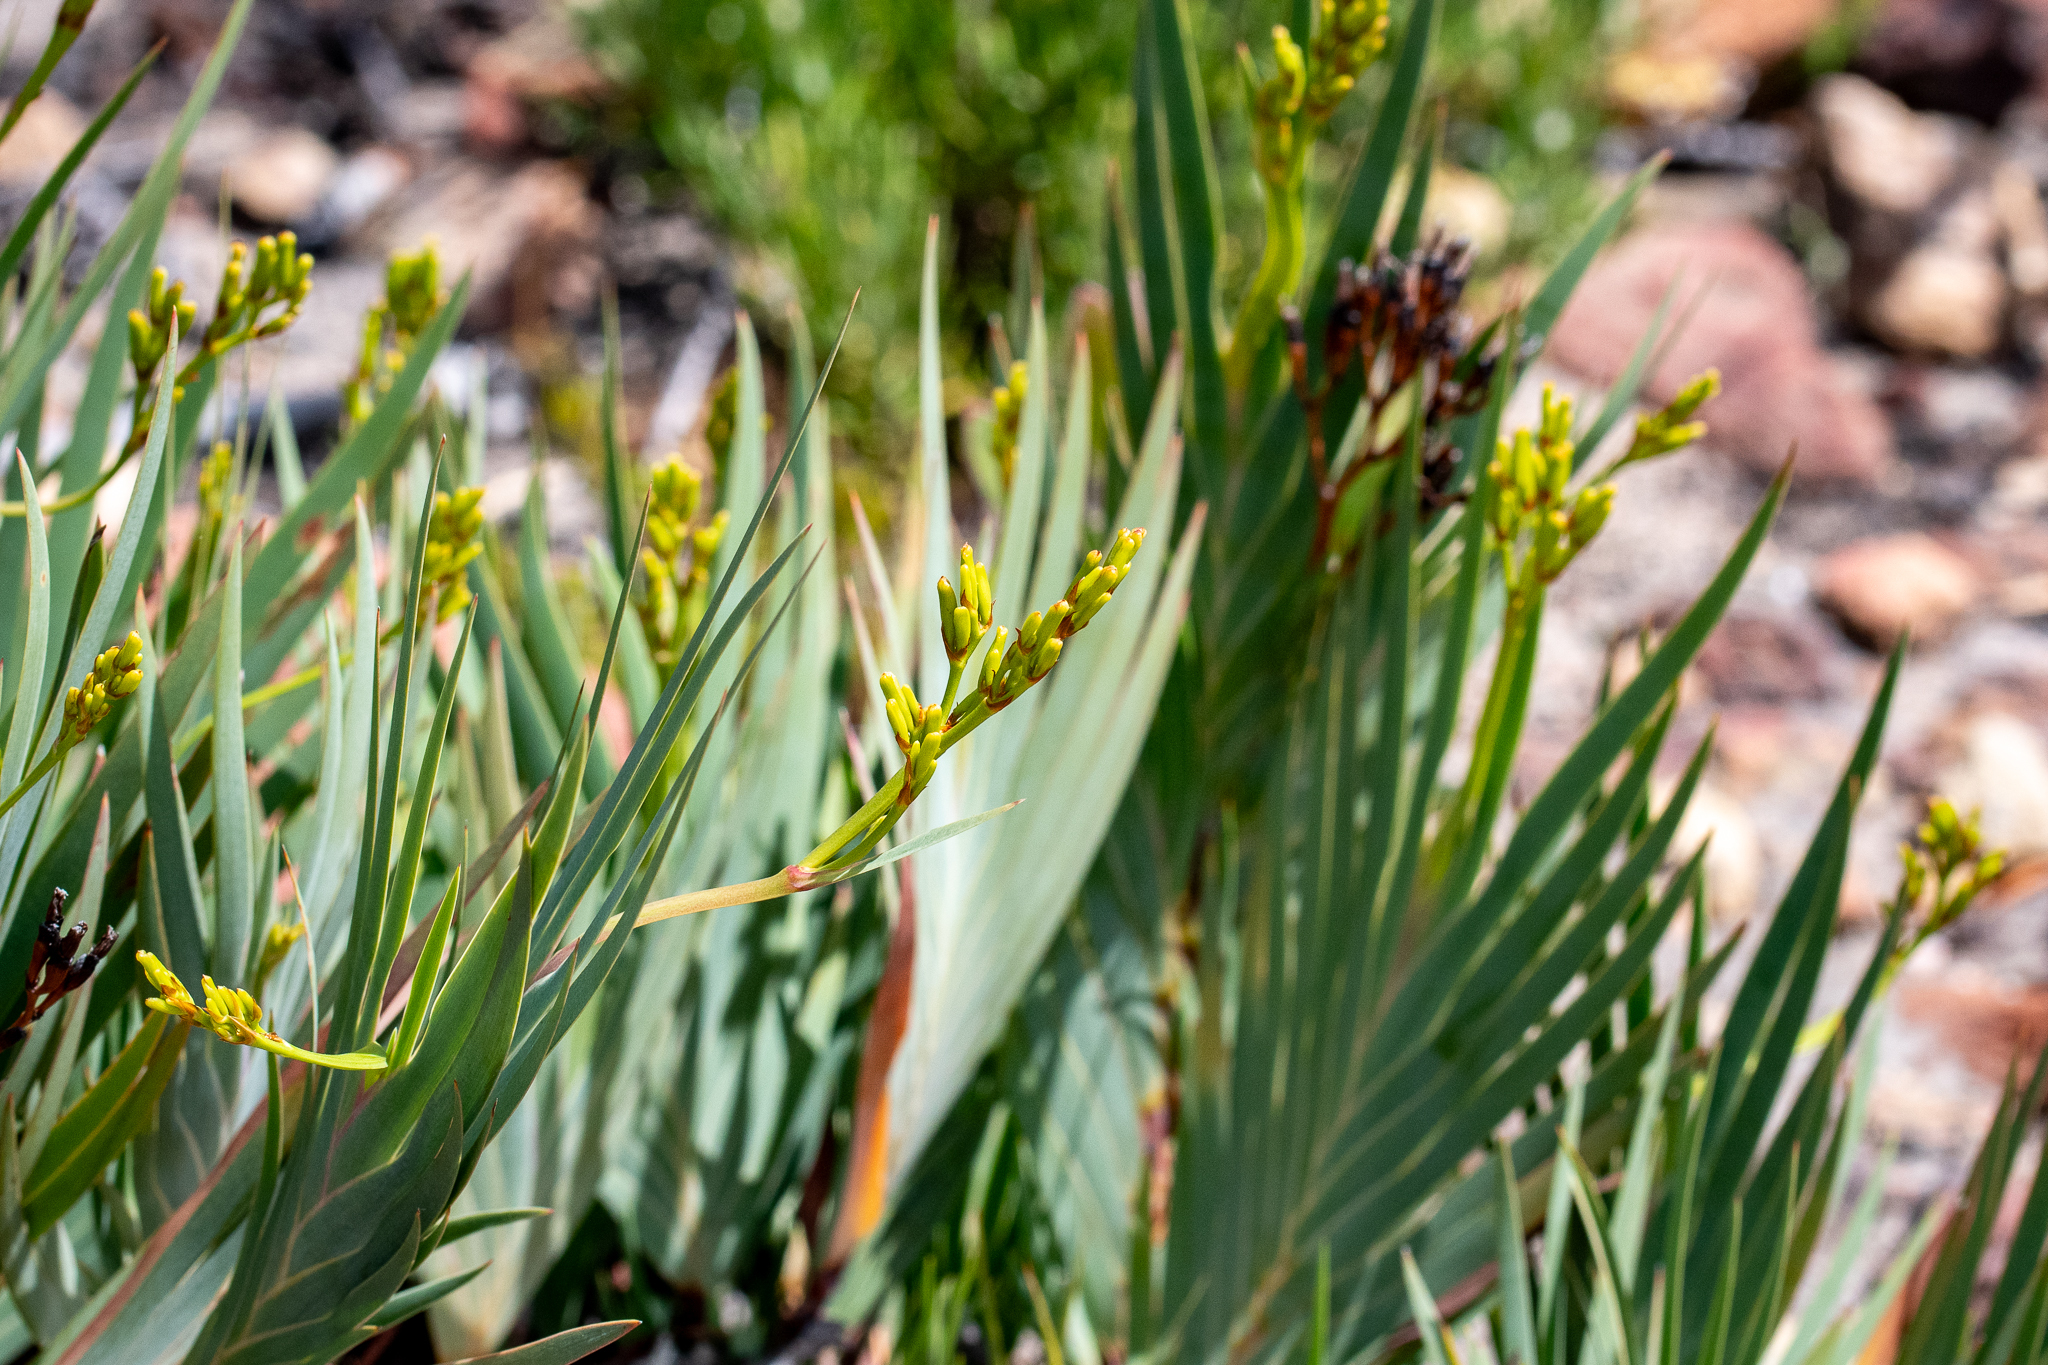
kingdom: Plantae
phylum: Tracheophyta
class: Liliopsida
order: Asparagales
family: Iridaceae
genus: Nivenia
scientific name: Nivenia stokoei
